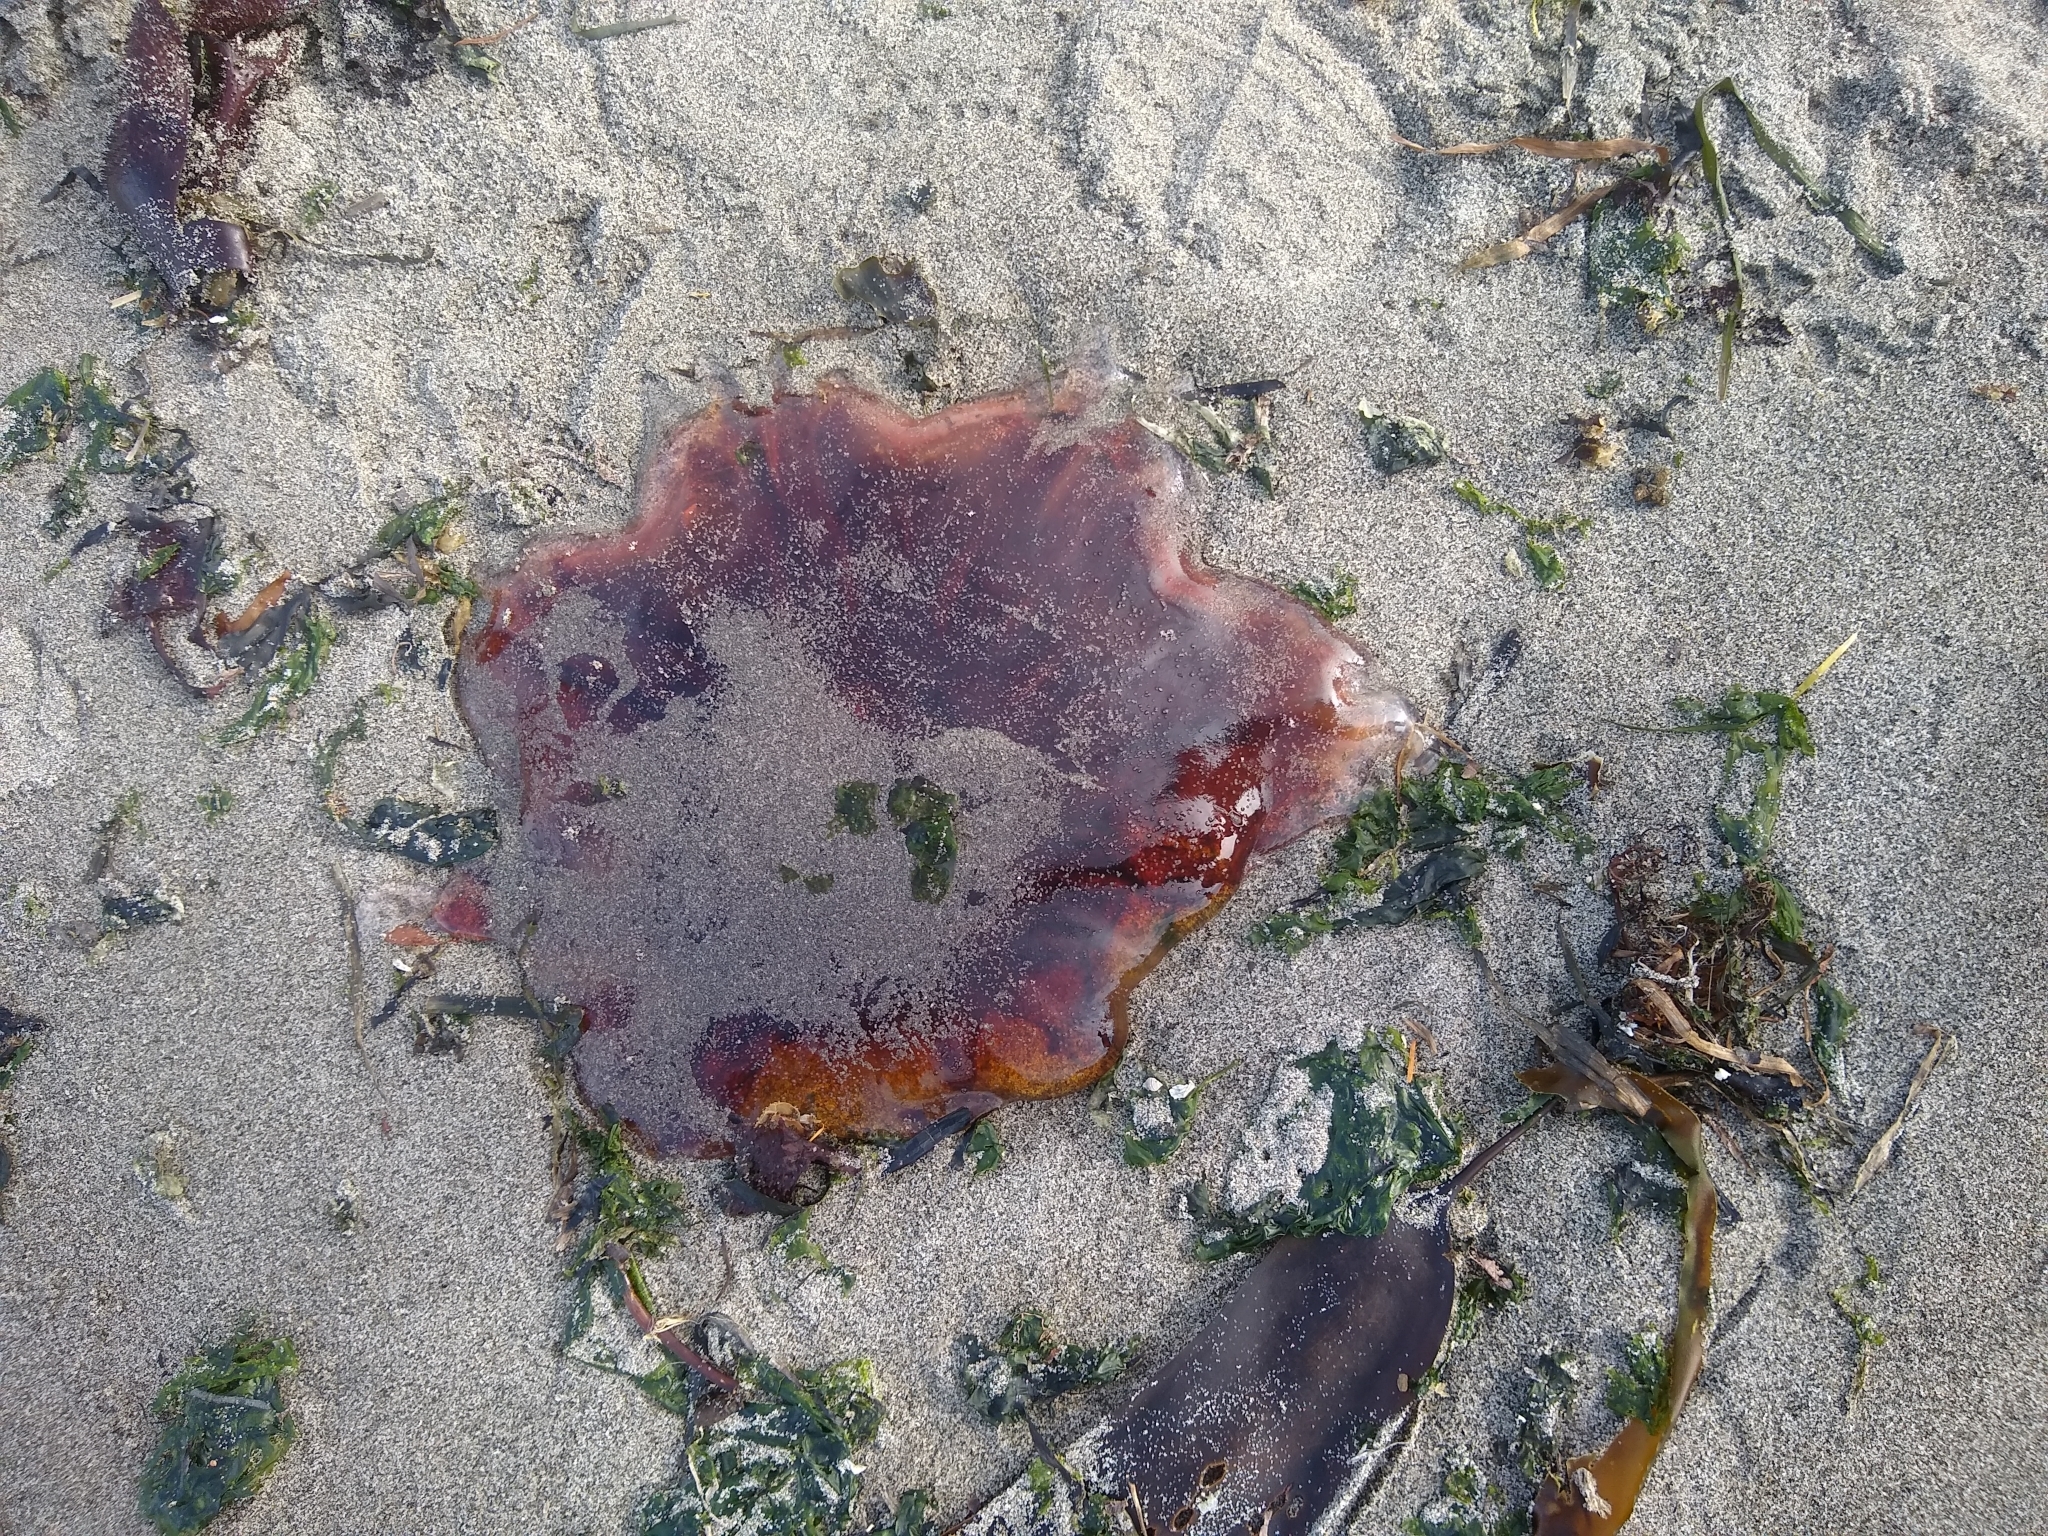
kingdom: Animalia
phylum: Cnidaria
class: Scyphozoa
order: Semaeostomeae
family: Cyaneidae
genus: Cyanea
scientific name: Cyanea ferruginea
